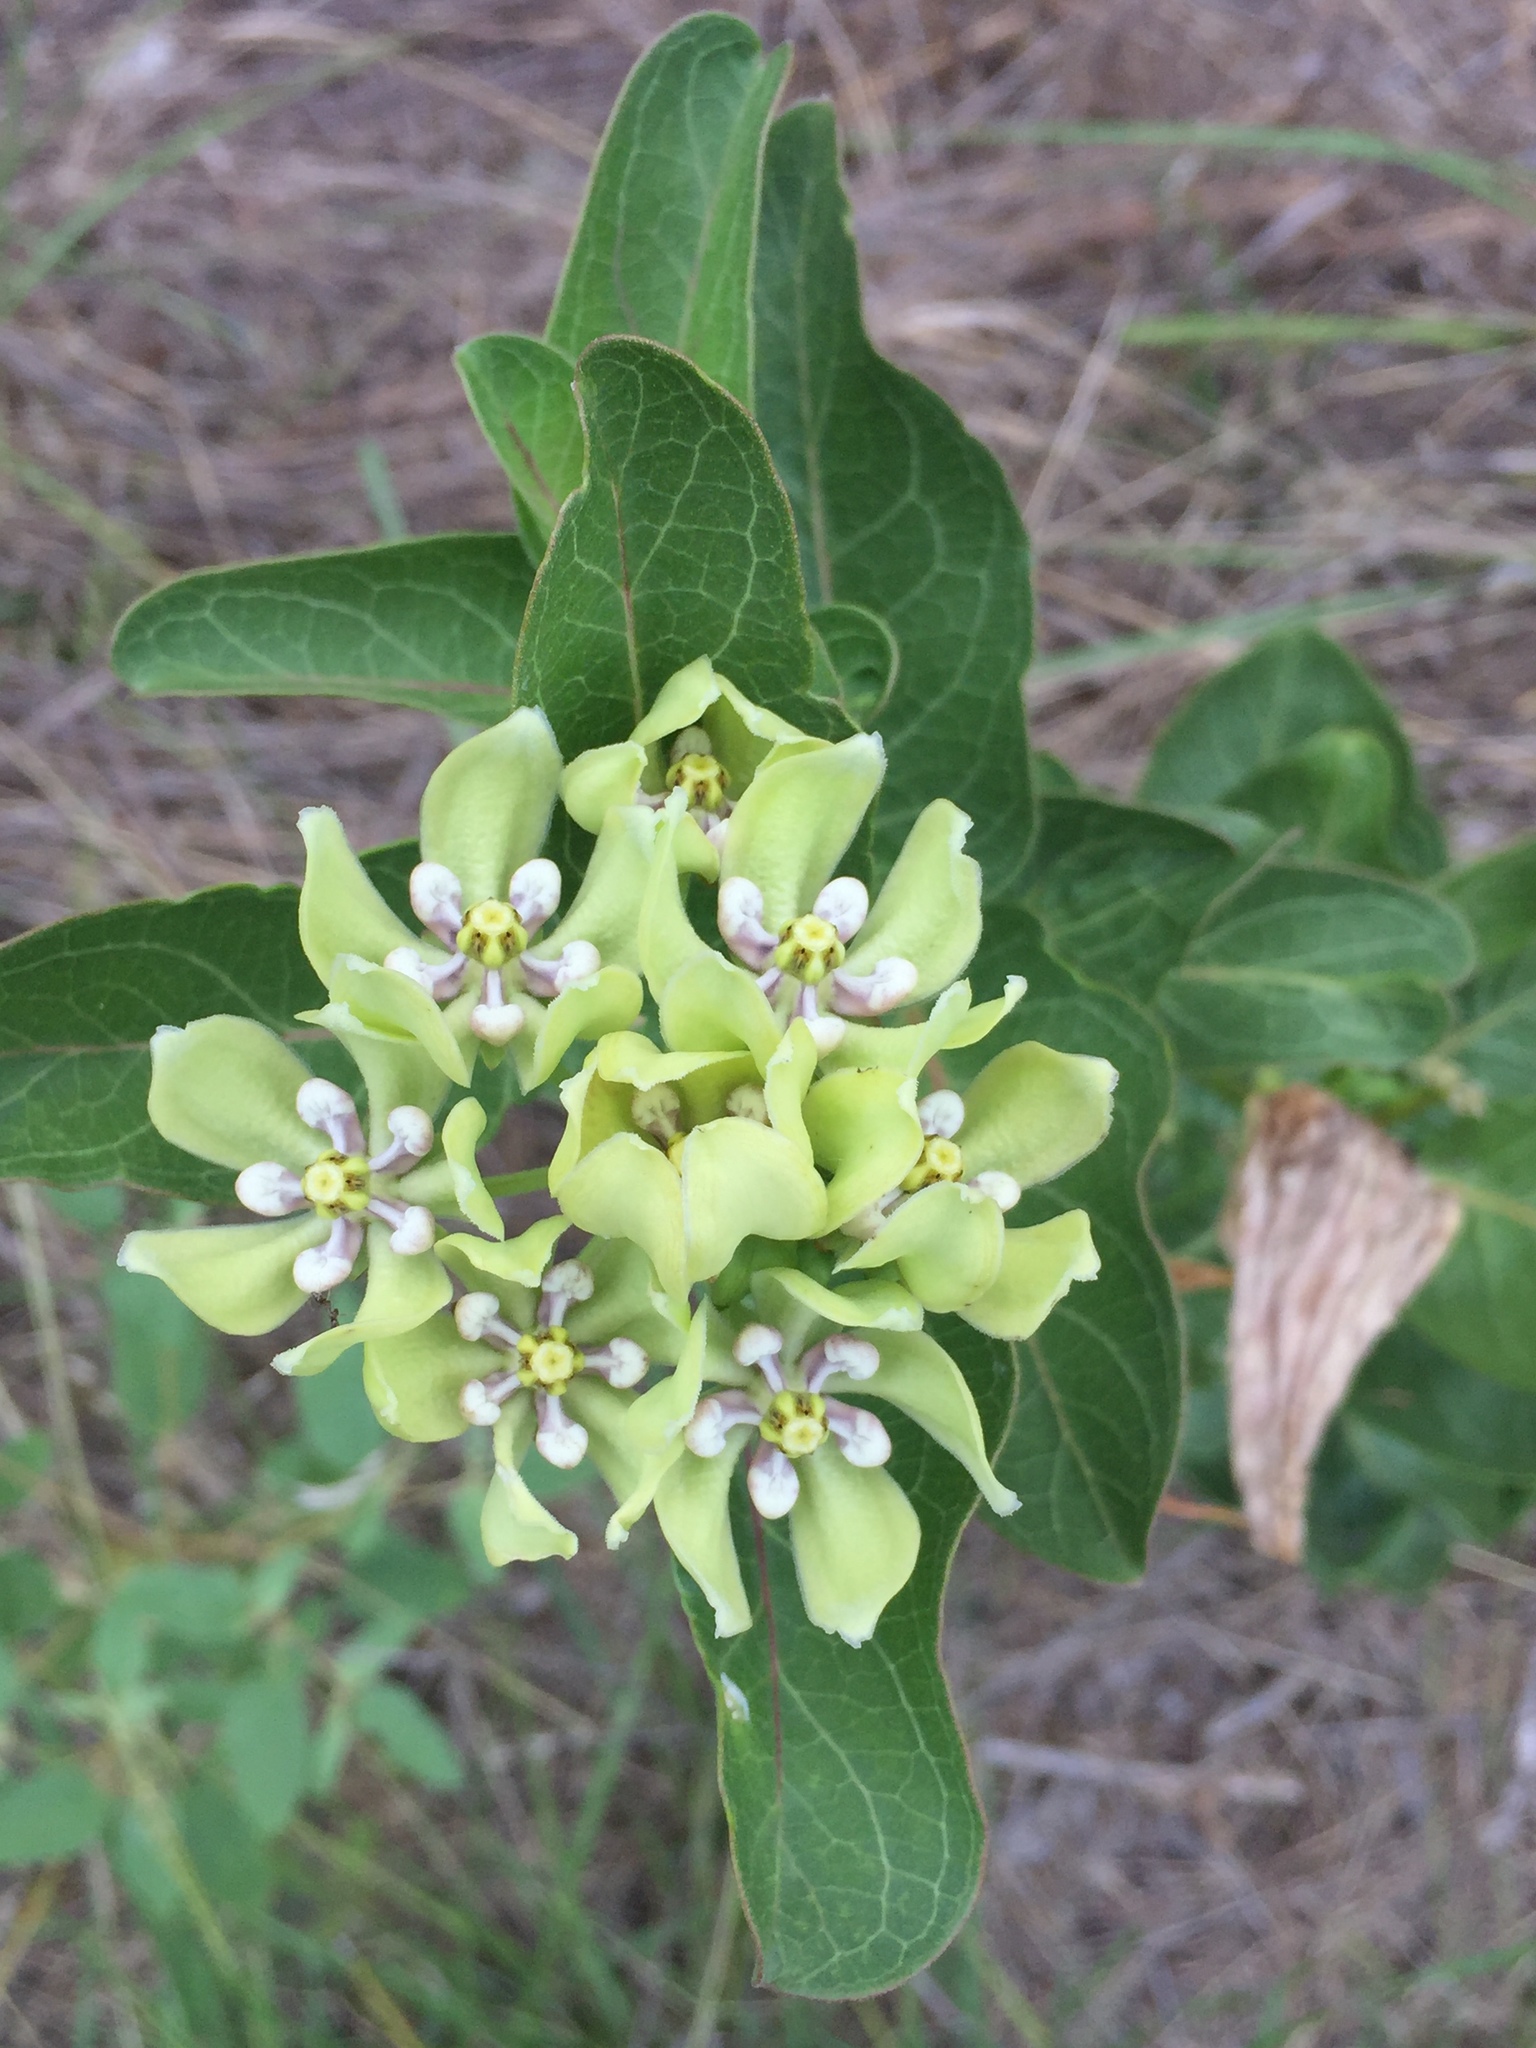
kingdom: Plantae
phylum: Tracheophyta
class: Magnoliopsida
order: Gentianales
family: Apocynaceae
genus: Asclepias
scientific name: Asclepias viridis
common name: Antelope-horns
